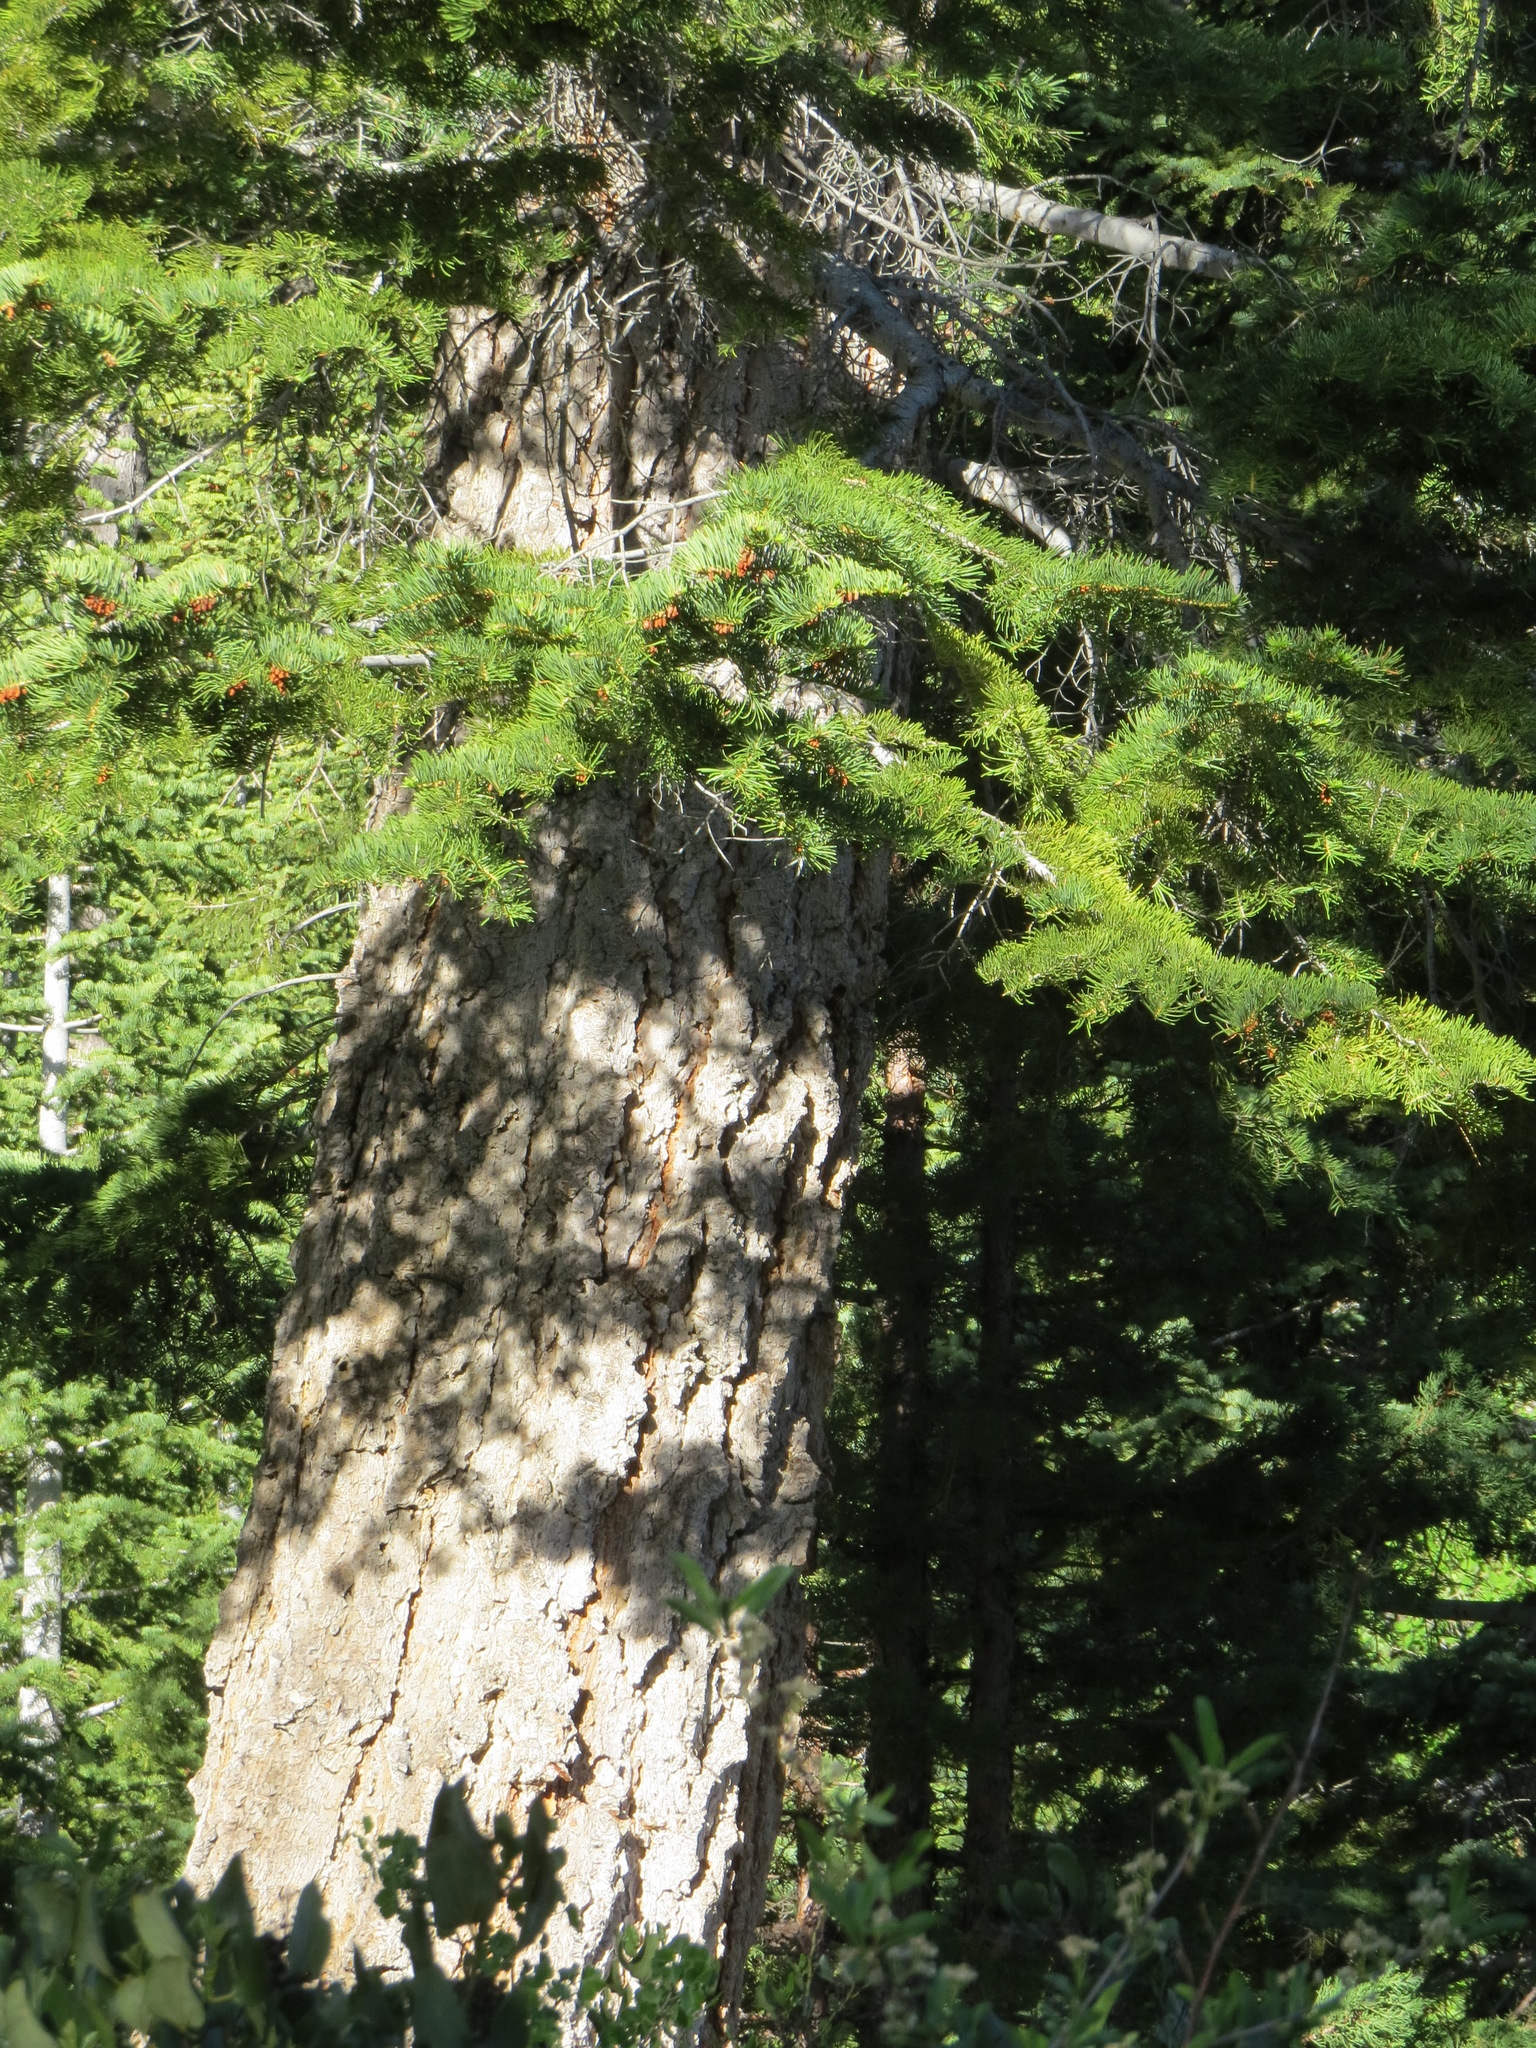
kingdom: Plantae
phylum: Tracheophyta
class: Pinopsida
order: Pinales
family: Pinaceae
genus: Abies
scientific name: Abies concolor
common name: Colorado fir
